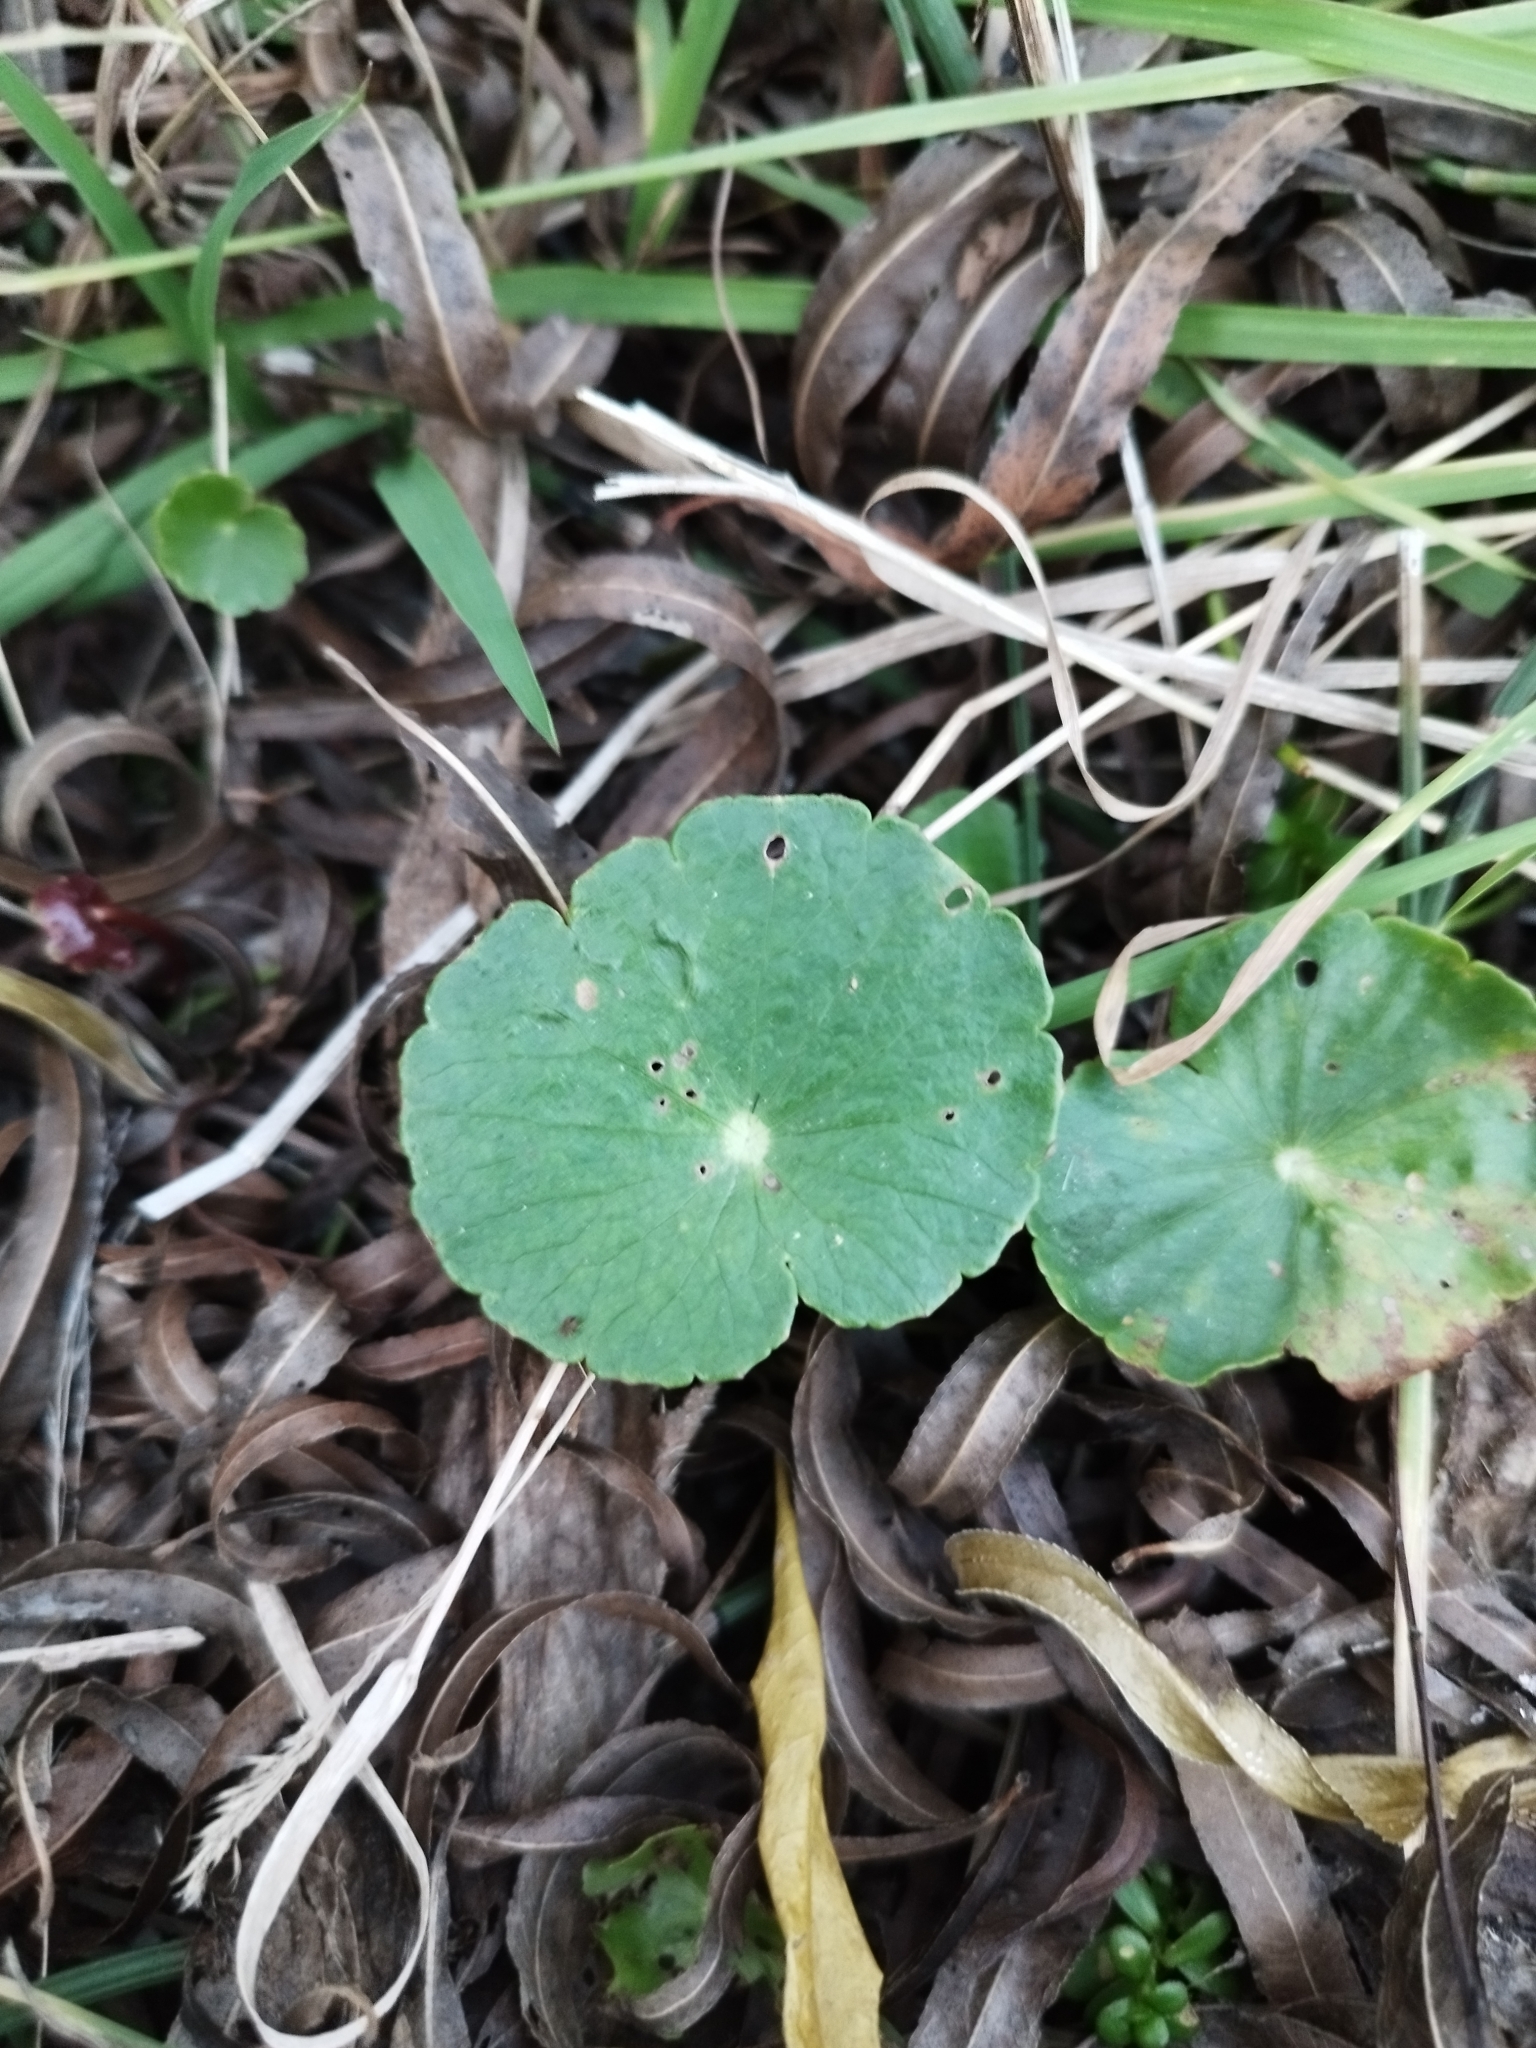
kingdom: Plantae
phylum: Tracheophyta
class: Magnoliopsida
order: Apiales
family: Araliaceae
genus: Hydrocotyle
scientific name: Hydrocotyle bonariensis
